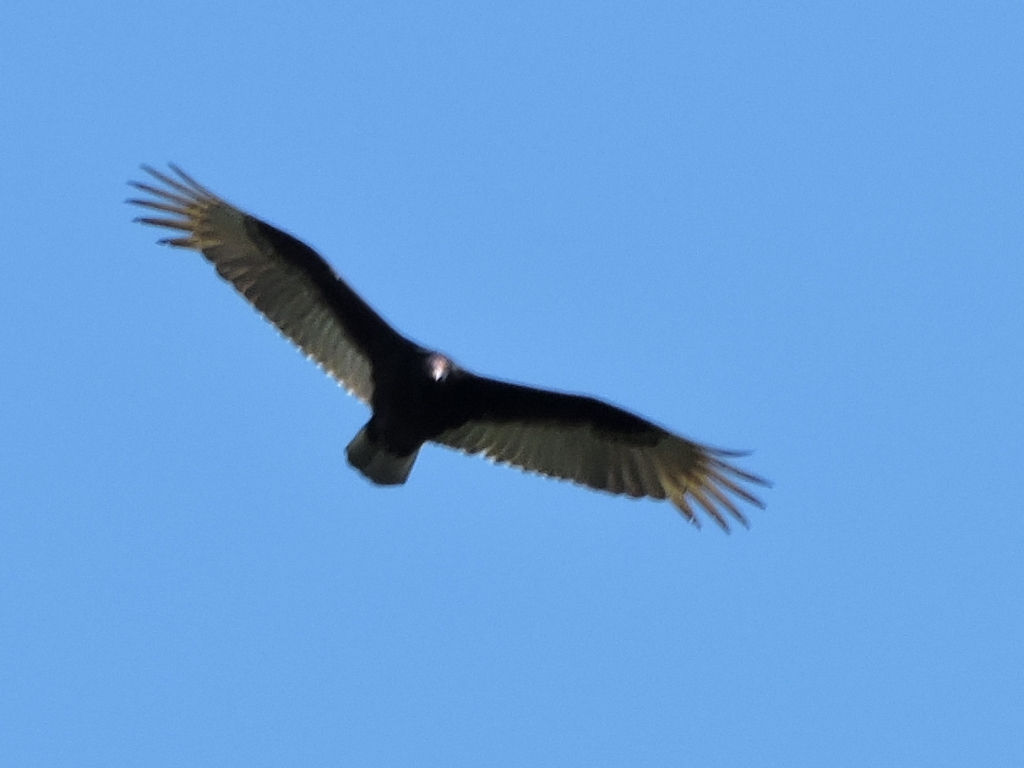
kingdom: Animalia
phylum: Chordata
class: Aves
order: Accipitriformes
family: Cathartidae
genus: Cathartes
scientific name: Cathartes aura
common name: Turkey vulture
